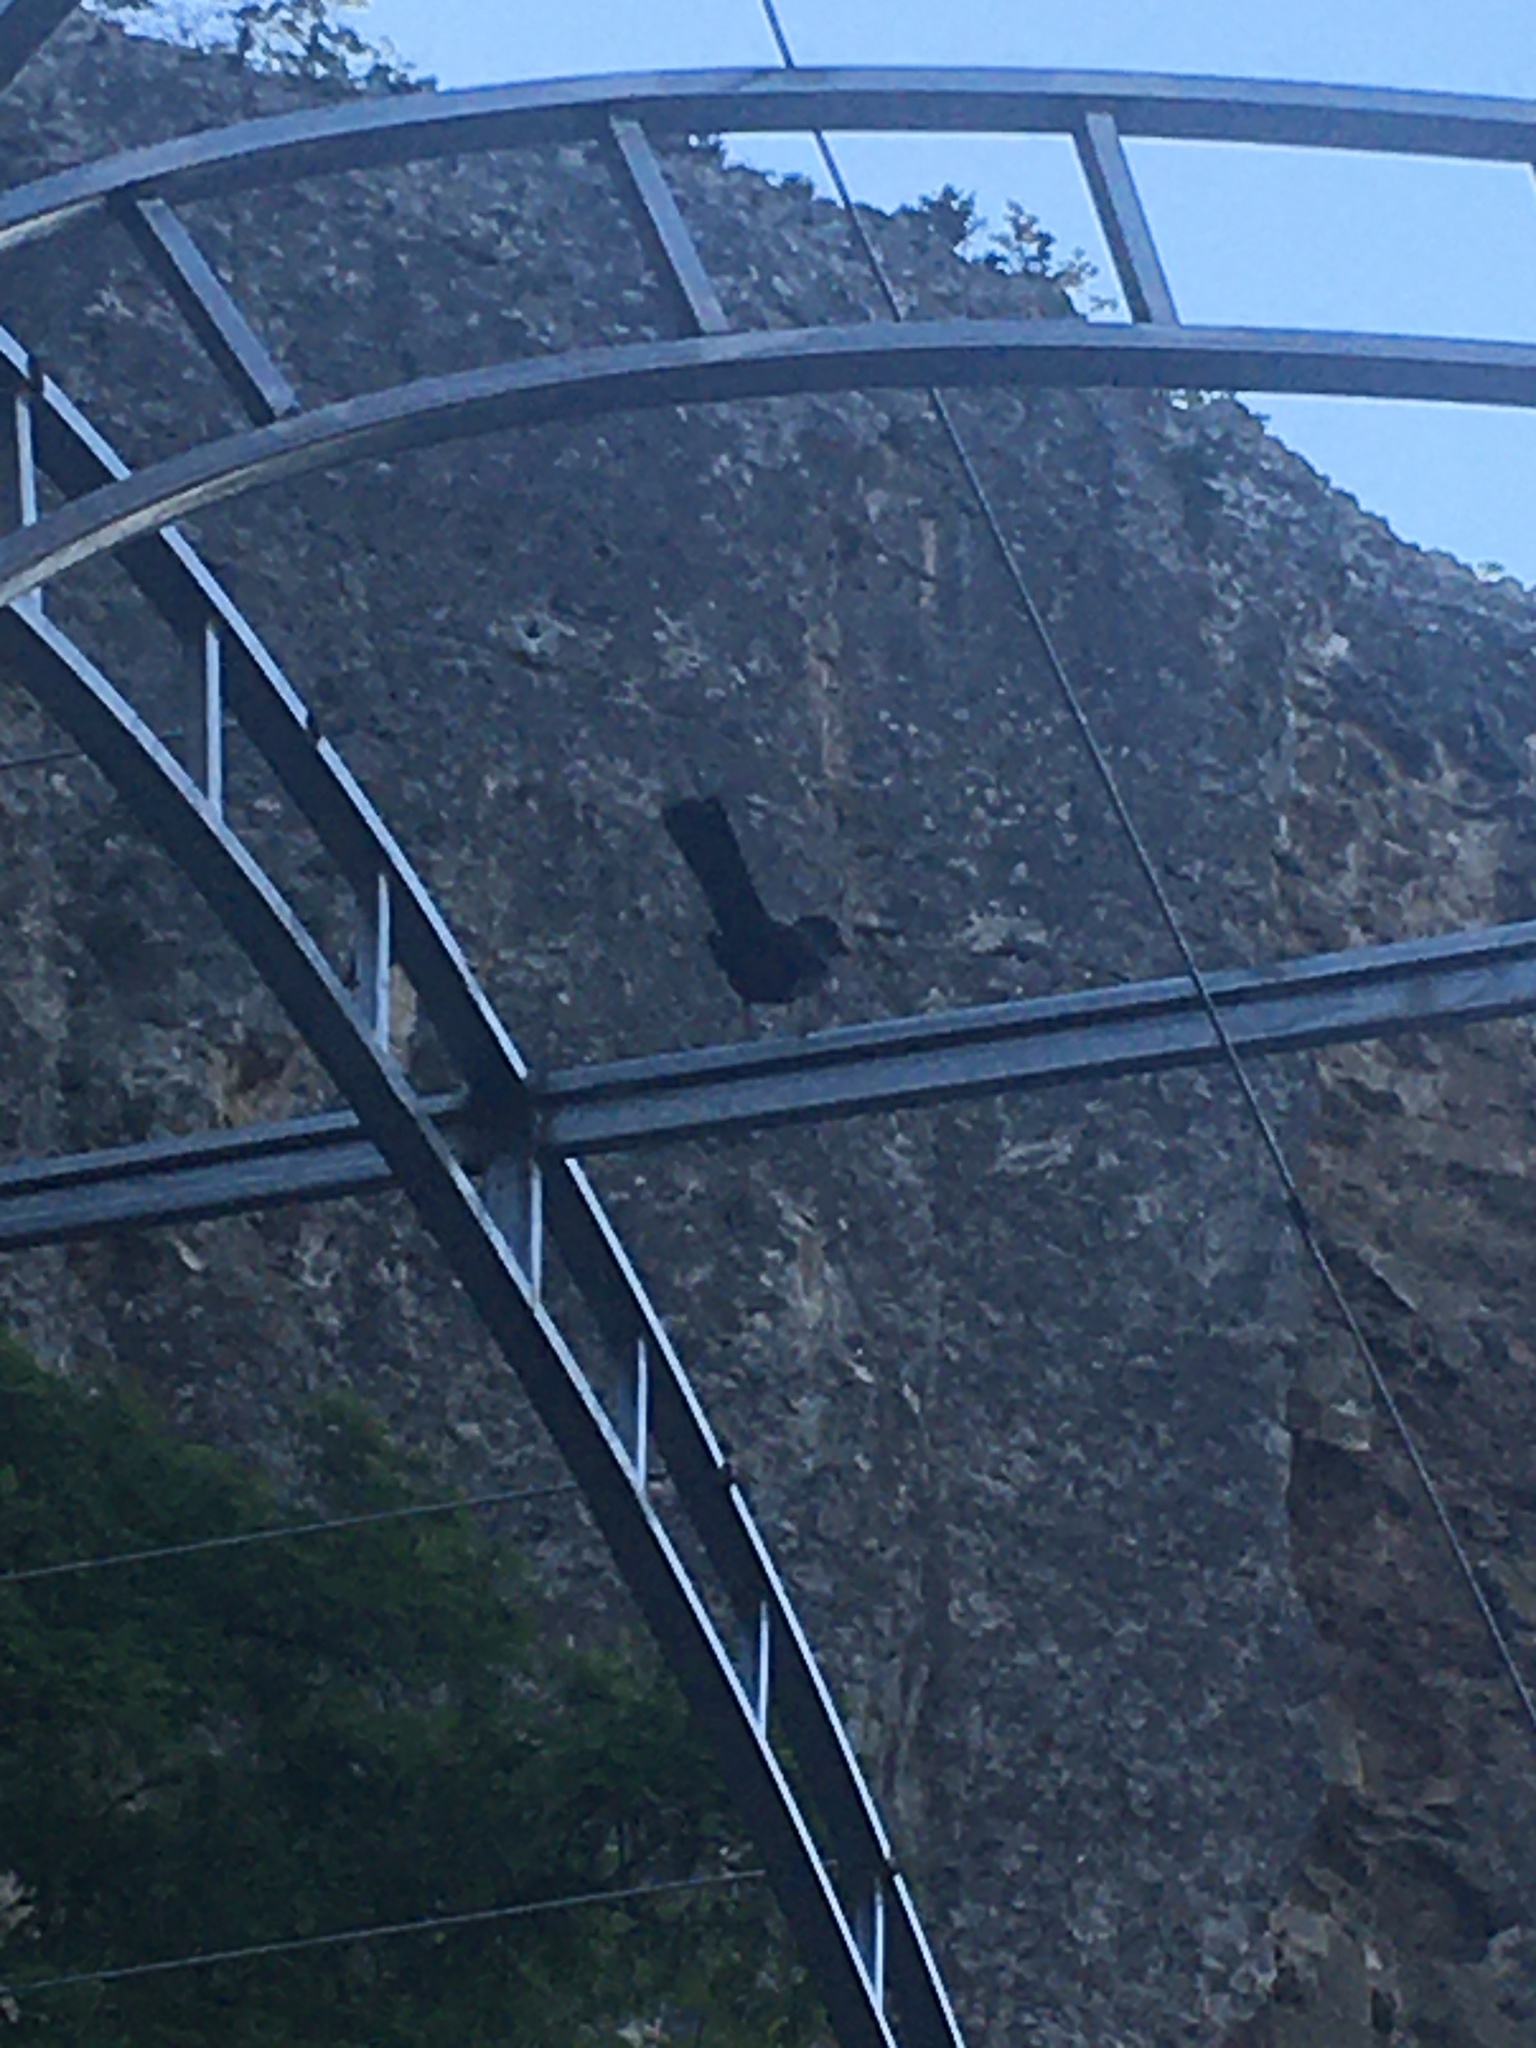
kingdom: Animalia
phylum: Chordata
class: Aves
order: Passeriformes
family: Turdidae
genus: Turdus
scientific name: Turdus merula
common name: Common blackbird
